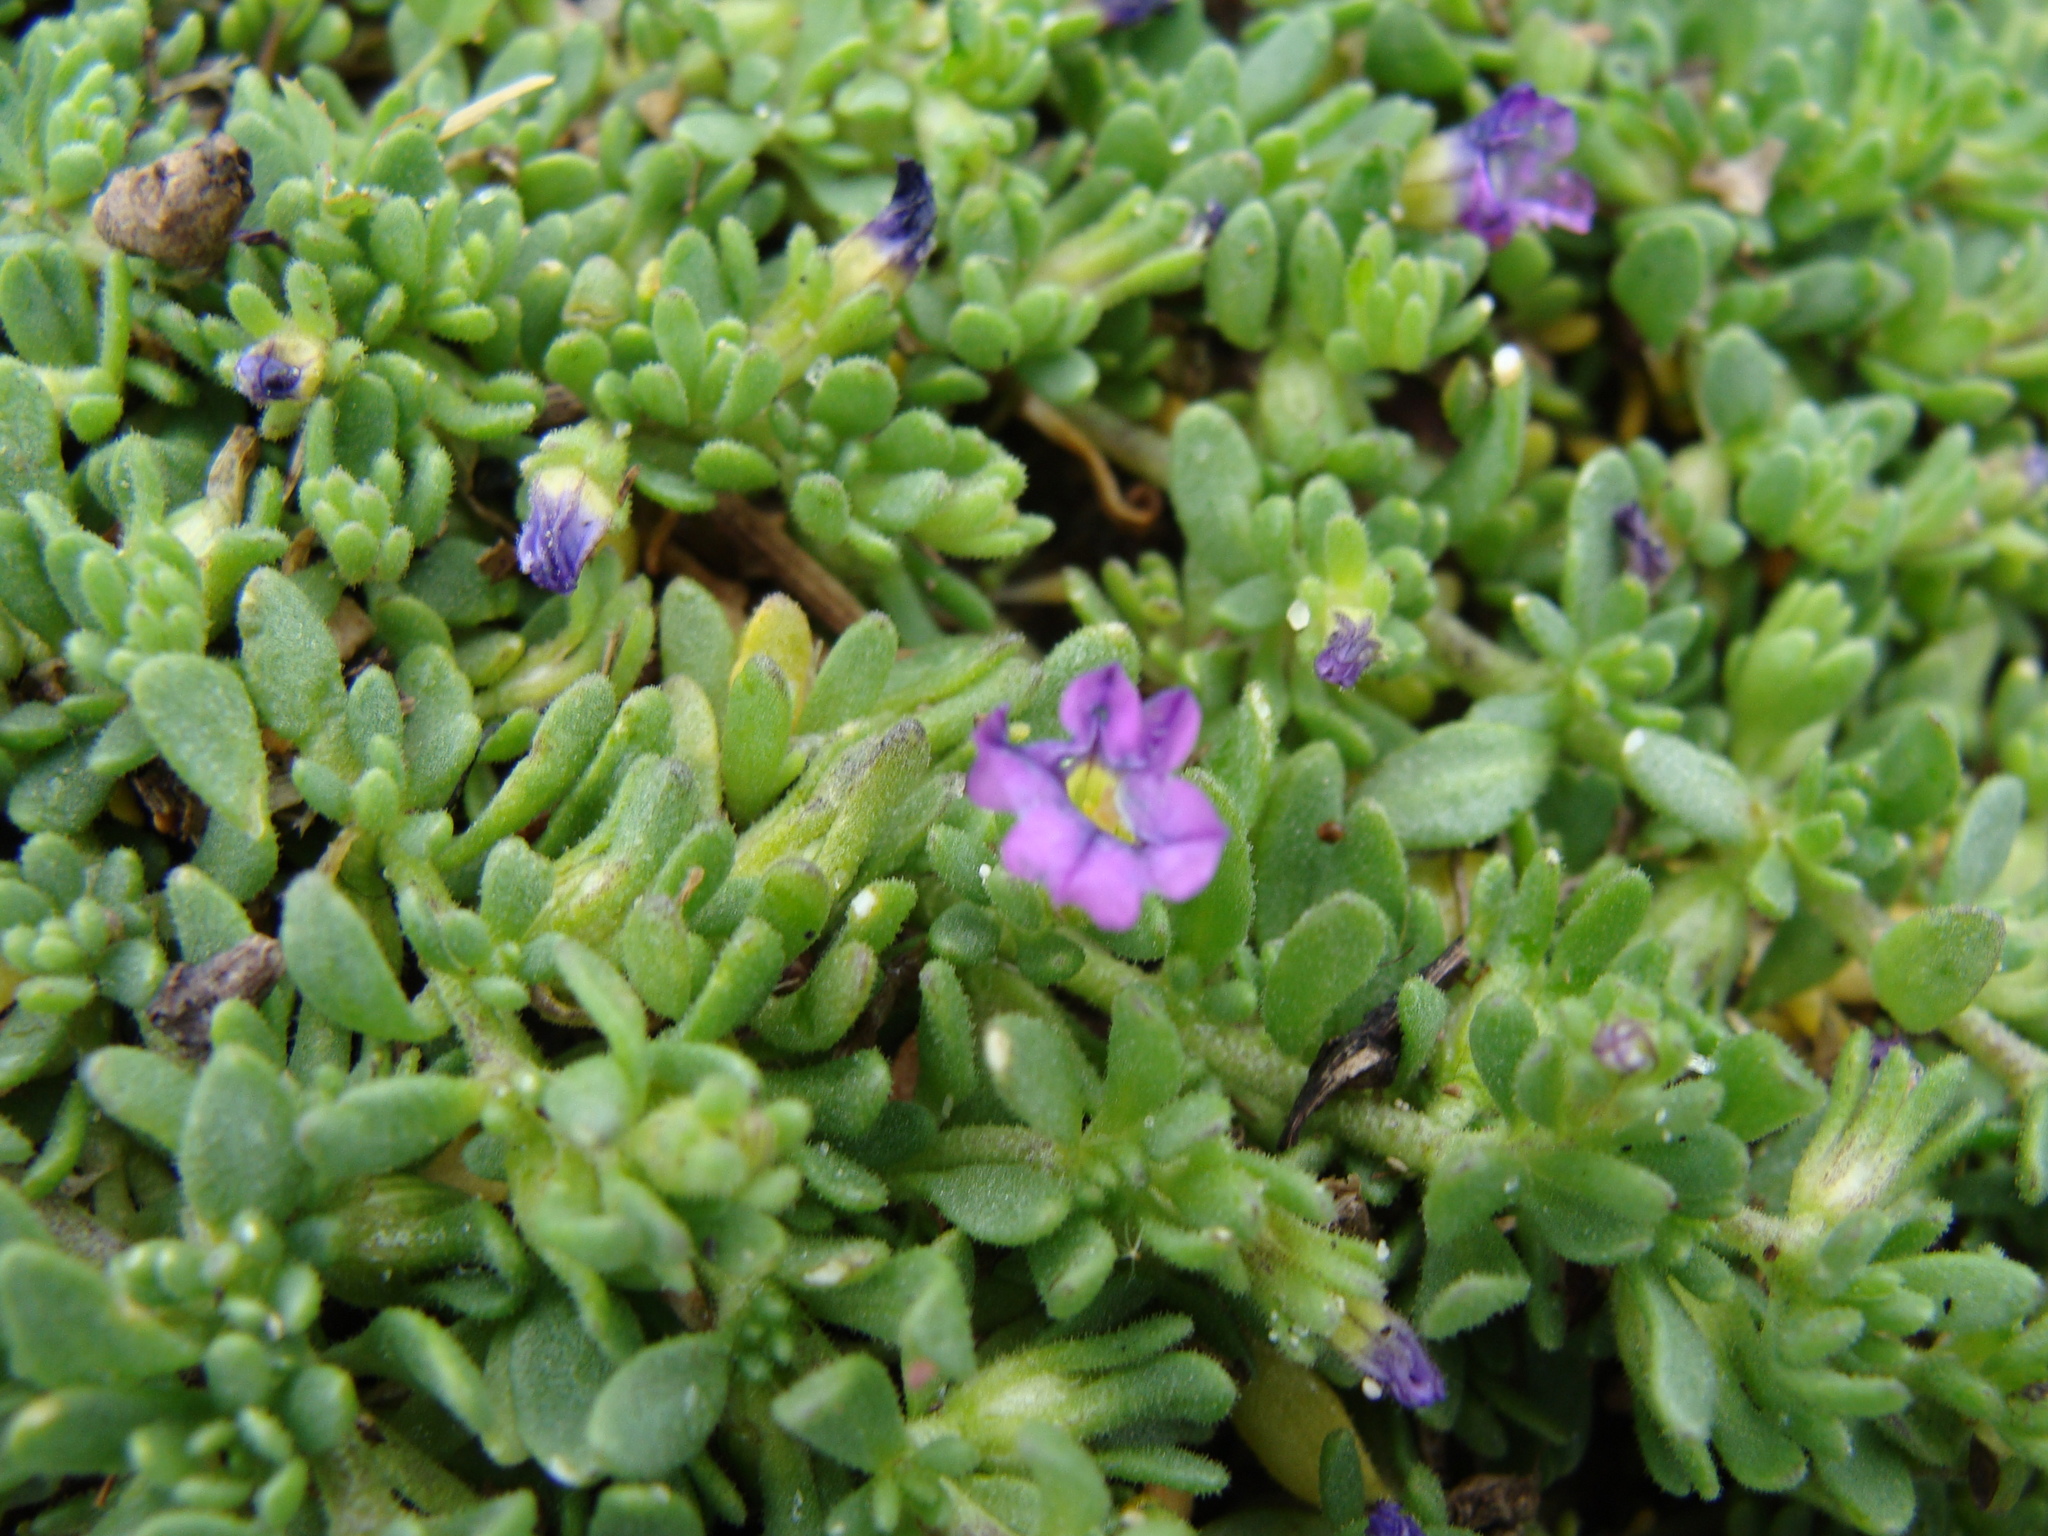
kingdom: Plantae
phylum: Tracheophyta
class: Magnoliopsida
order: Solanales
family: Solanaceae
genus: Calibrachoa
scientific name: Calibrachoa parviflora
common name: Seaside petunia
